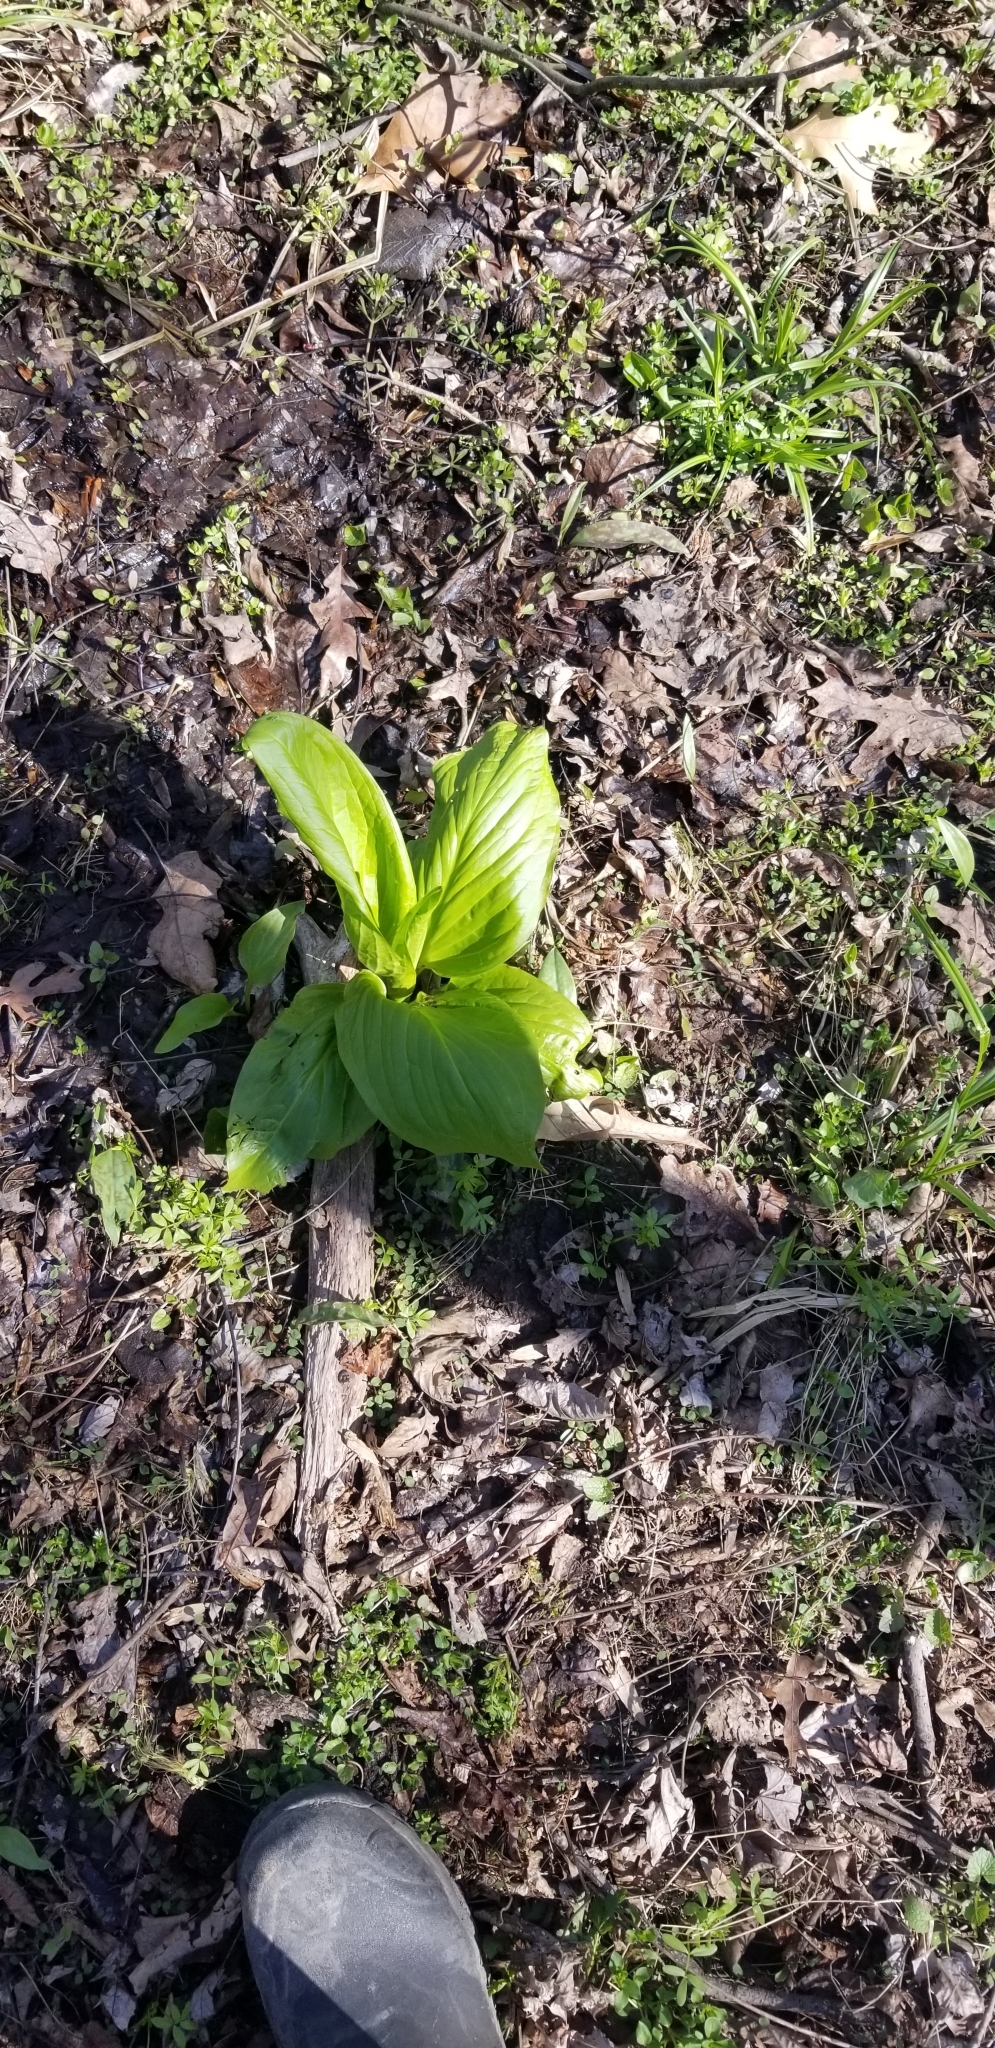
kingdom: Plantae
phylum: Tracheophyta
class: Liliopsida
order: Alismatales
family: Araceae
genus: Symplocarpus
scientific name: Symplocarpus foetidus
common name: Eastern skunk cabbage
